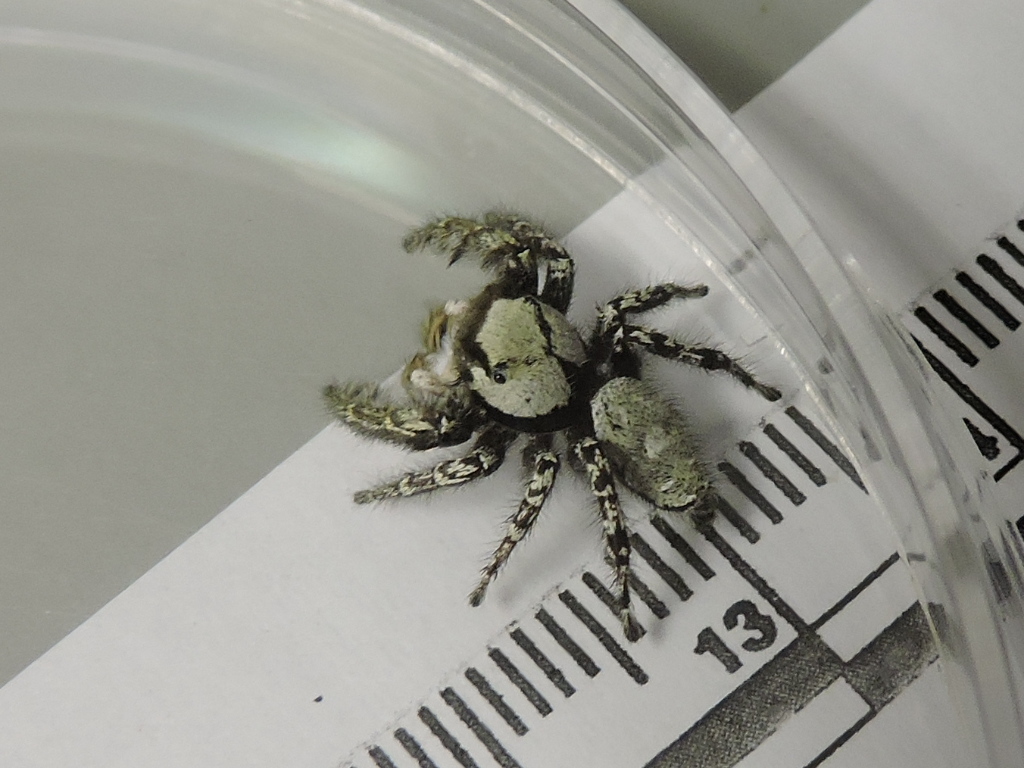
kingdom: Animalia
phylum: Arthropoda
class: Arachnida
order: Araneae
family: Salticidae
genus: Phidippus
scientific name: Phidippus carolinensis
